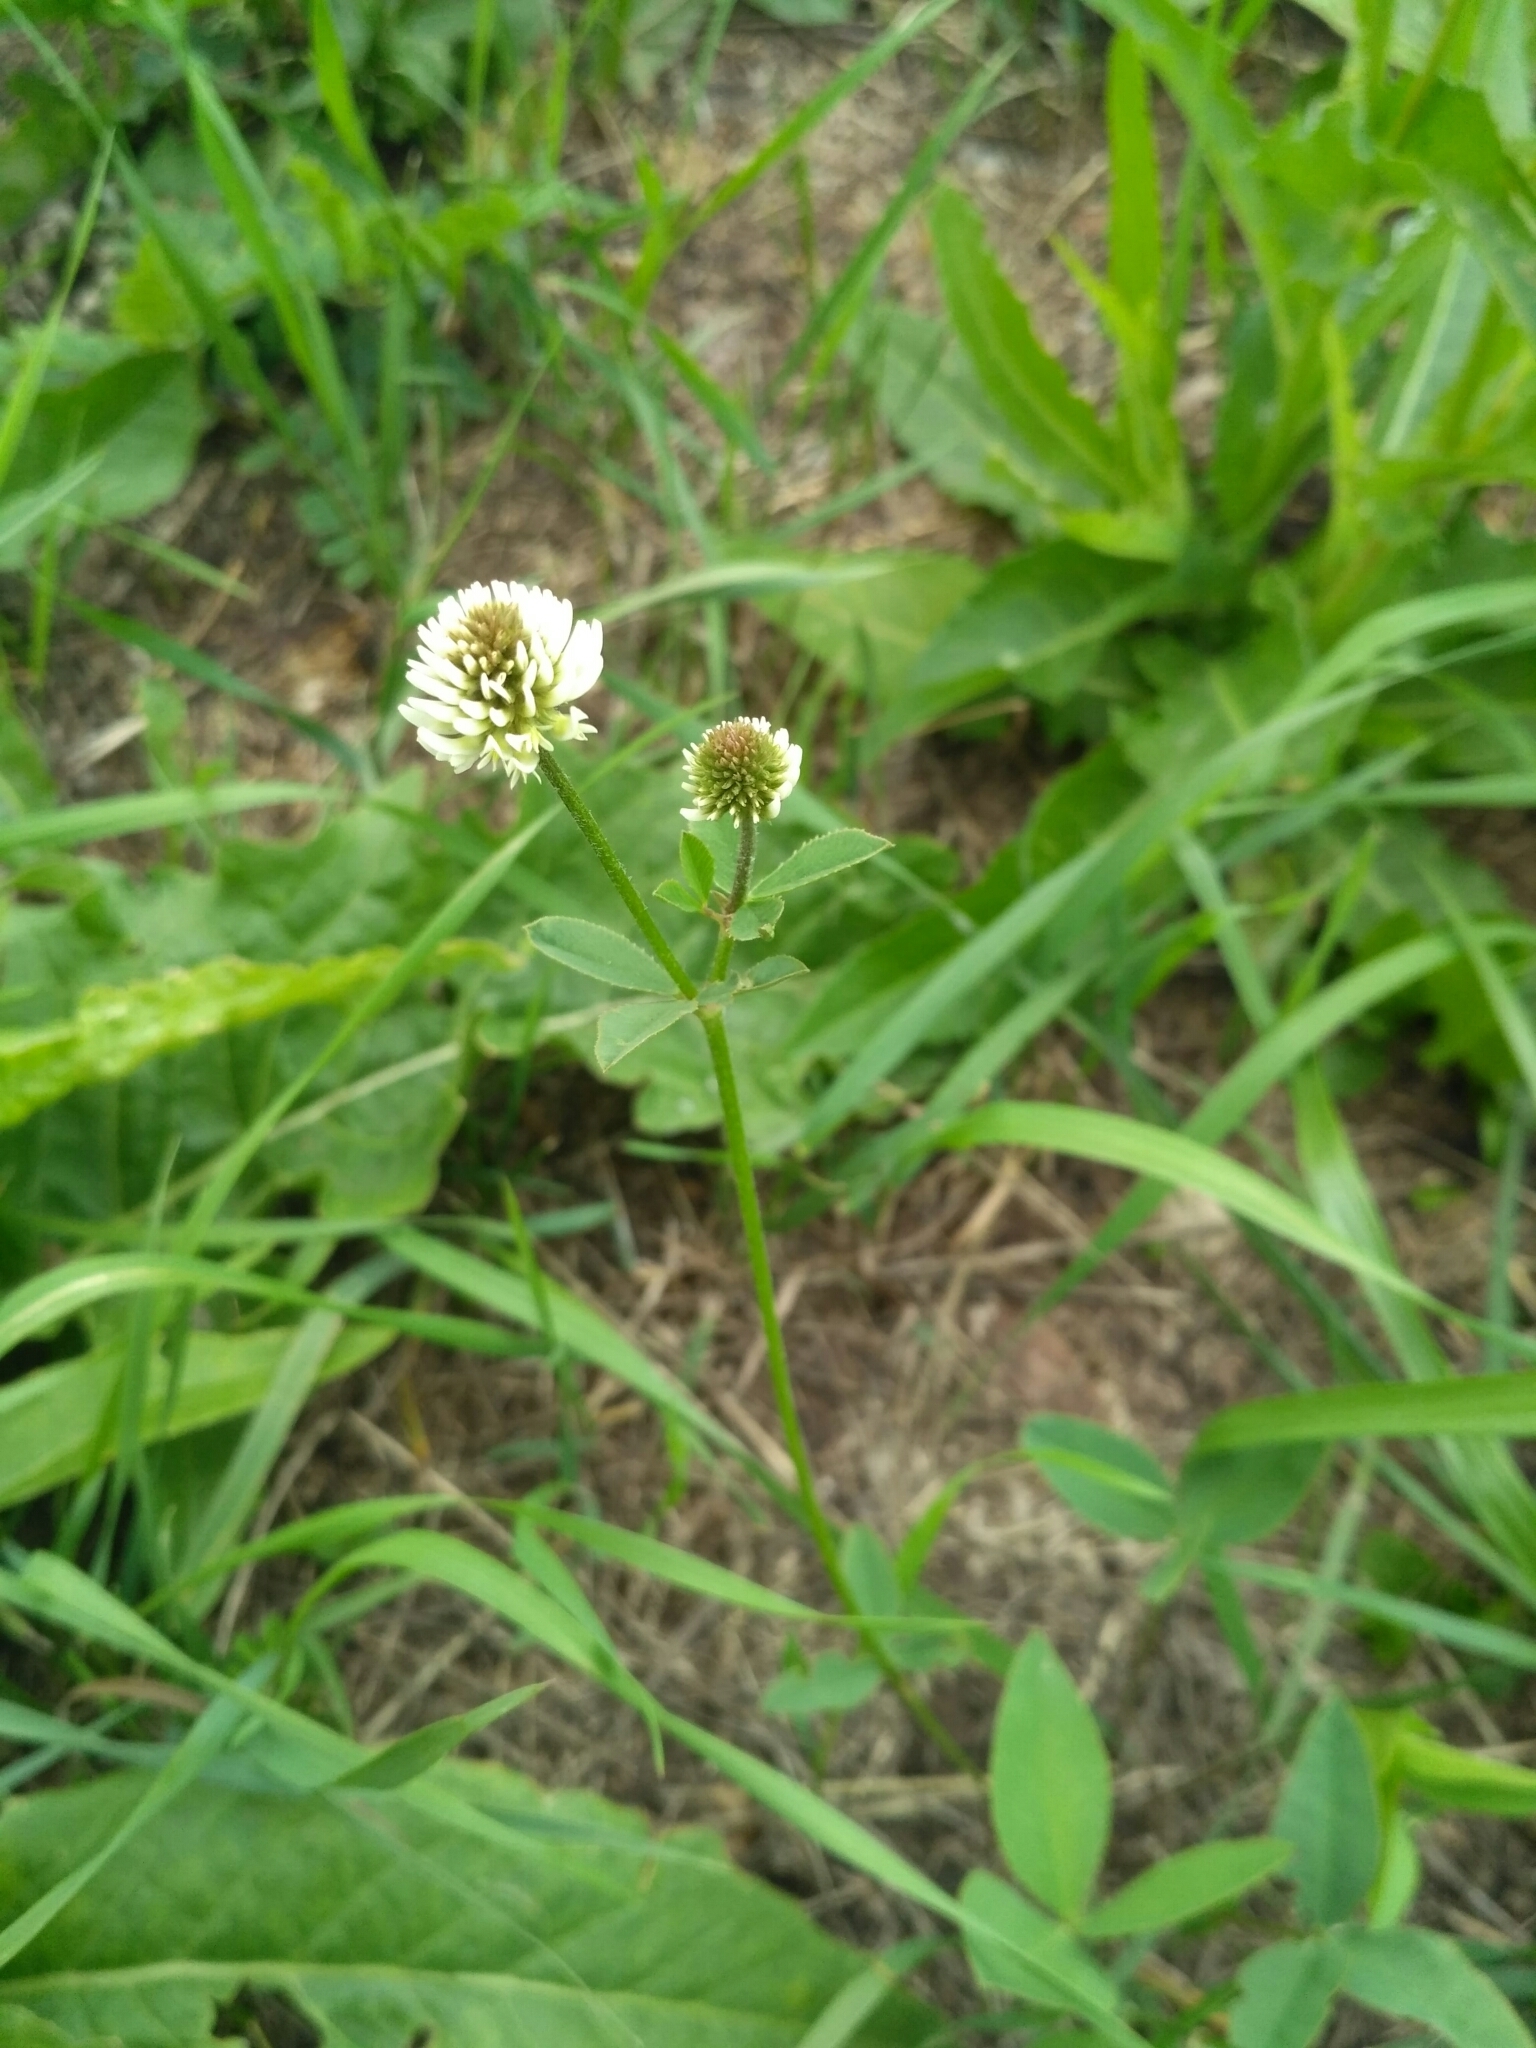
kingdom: Plantae
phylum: Tracheophyta
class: Magnoliopsida
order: Fabales
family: Fabaceae
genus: Trifolium
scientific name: Trifolium montanum
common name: Mountain clover
